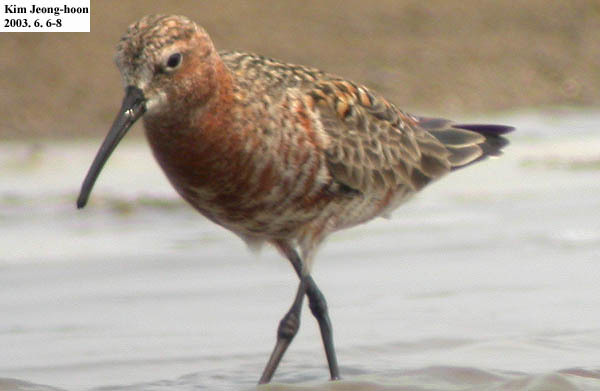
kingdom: Animalia
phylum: Chordata
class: Aves
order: Charadriiformes
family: Scolopacidae
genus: Calidris
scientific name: Calidris ferruginea
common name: Curlew sandpiper
